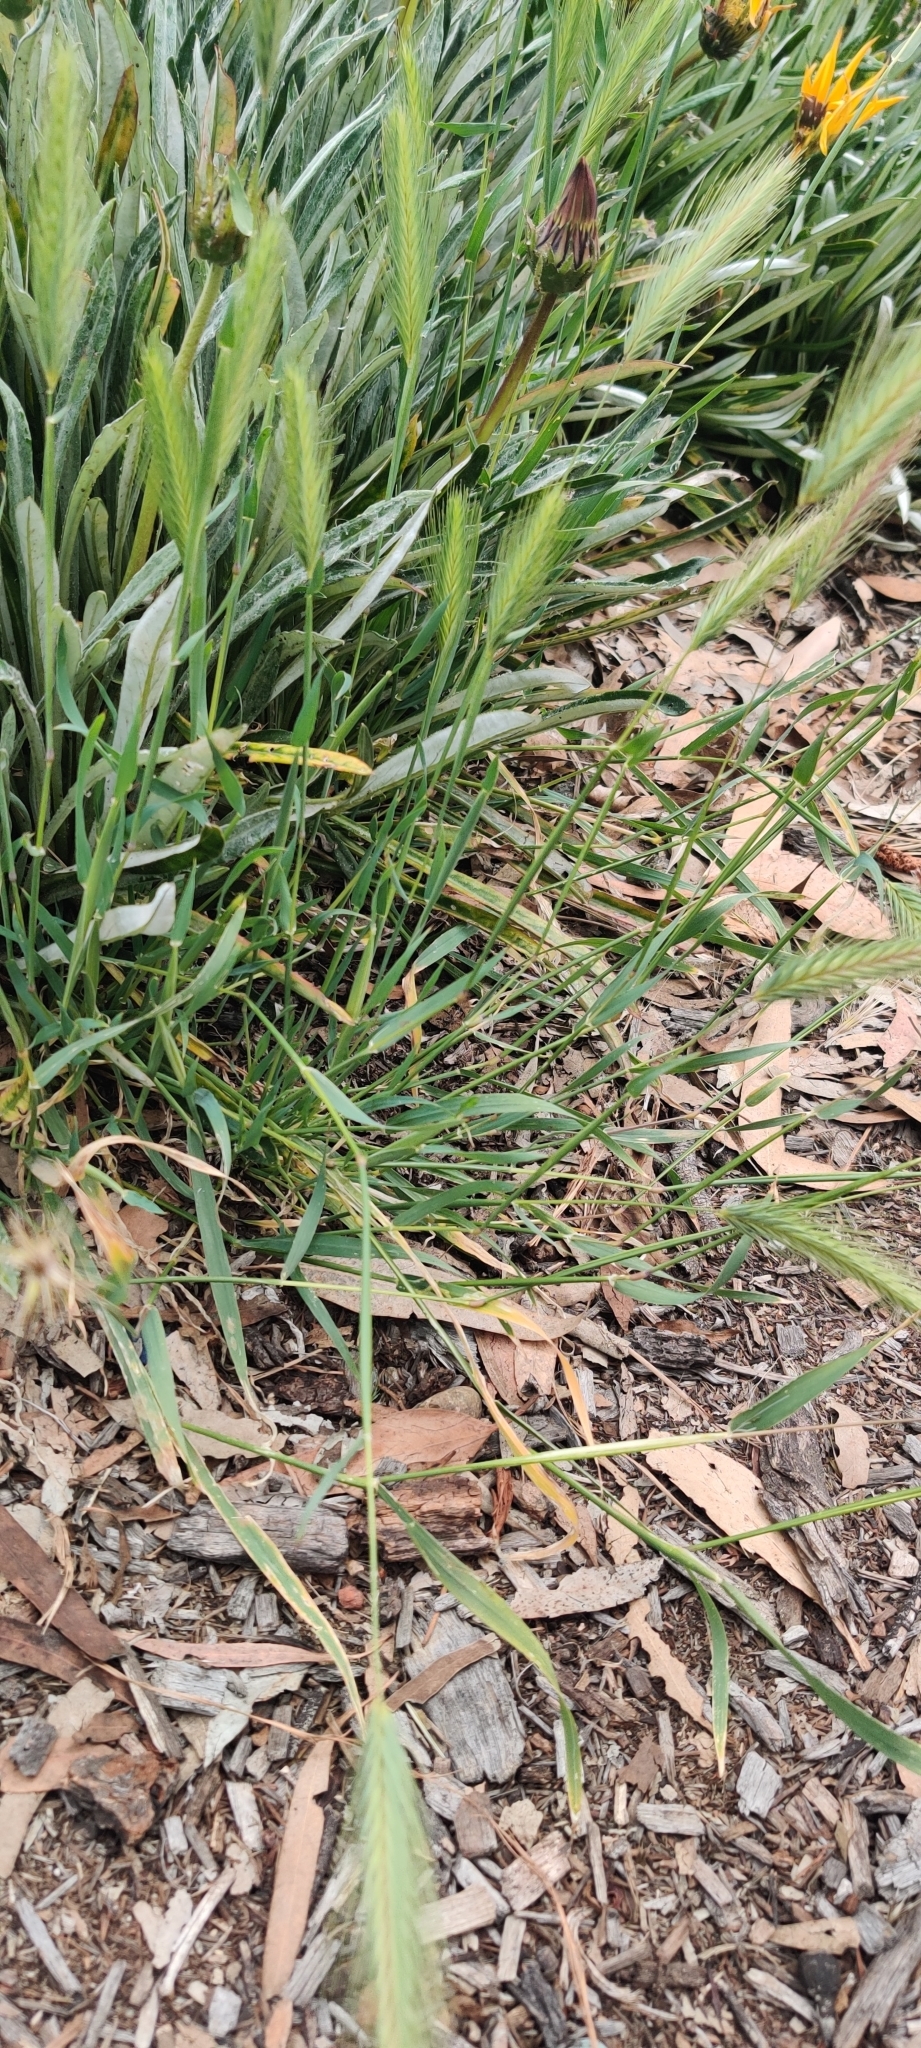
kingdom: Plantae
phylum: Tracheophyta
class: Liliopsida
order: Poales
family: Poaceae
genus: Hordeum
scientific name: Hordeum murinum
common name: Wall barley
